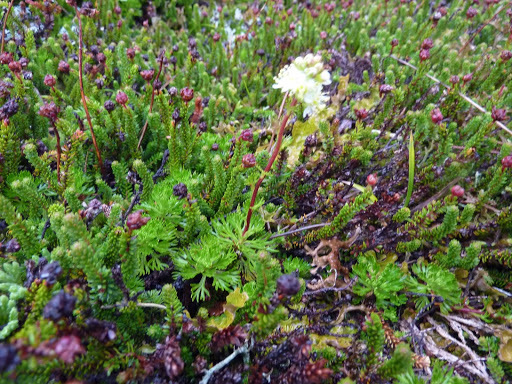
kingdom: Plantae
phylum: Tracheophyta
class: Magnoliopsida
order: Rosales
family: Rosaceae
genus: Luetkea
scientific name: Luetkea pectinata
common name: Partridgefoot
